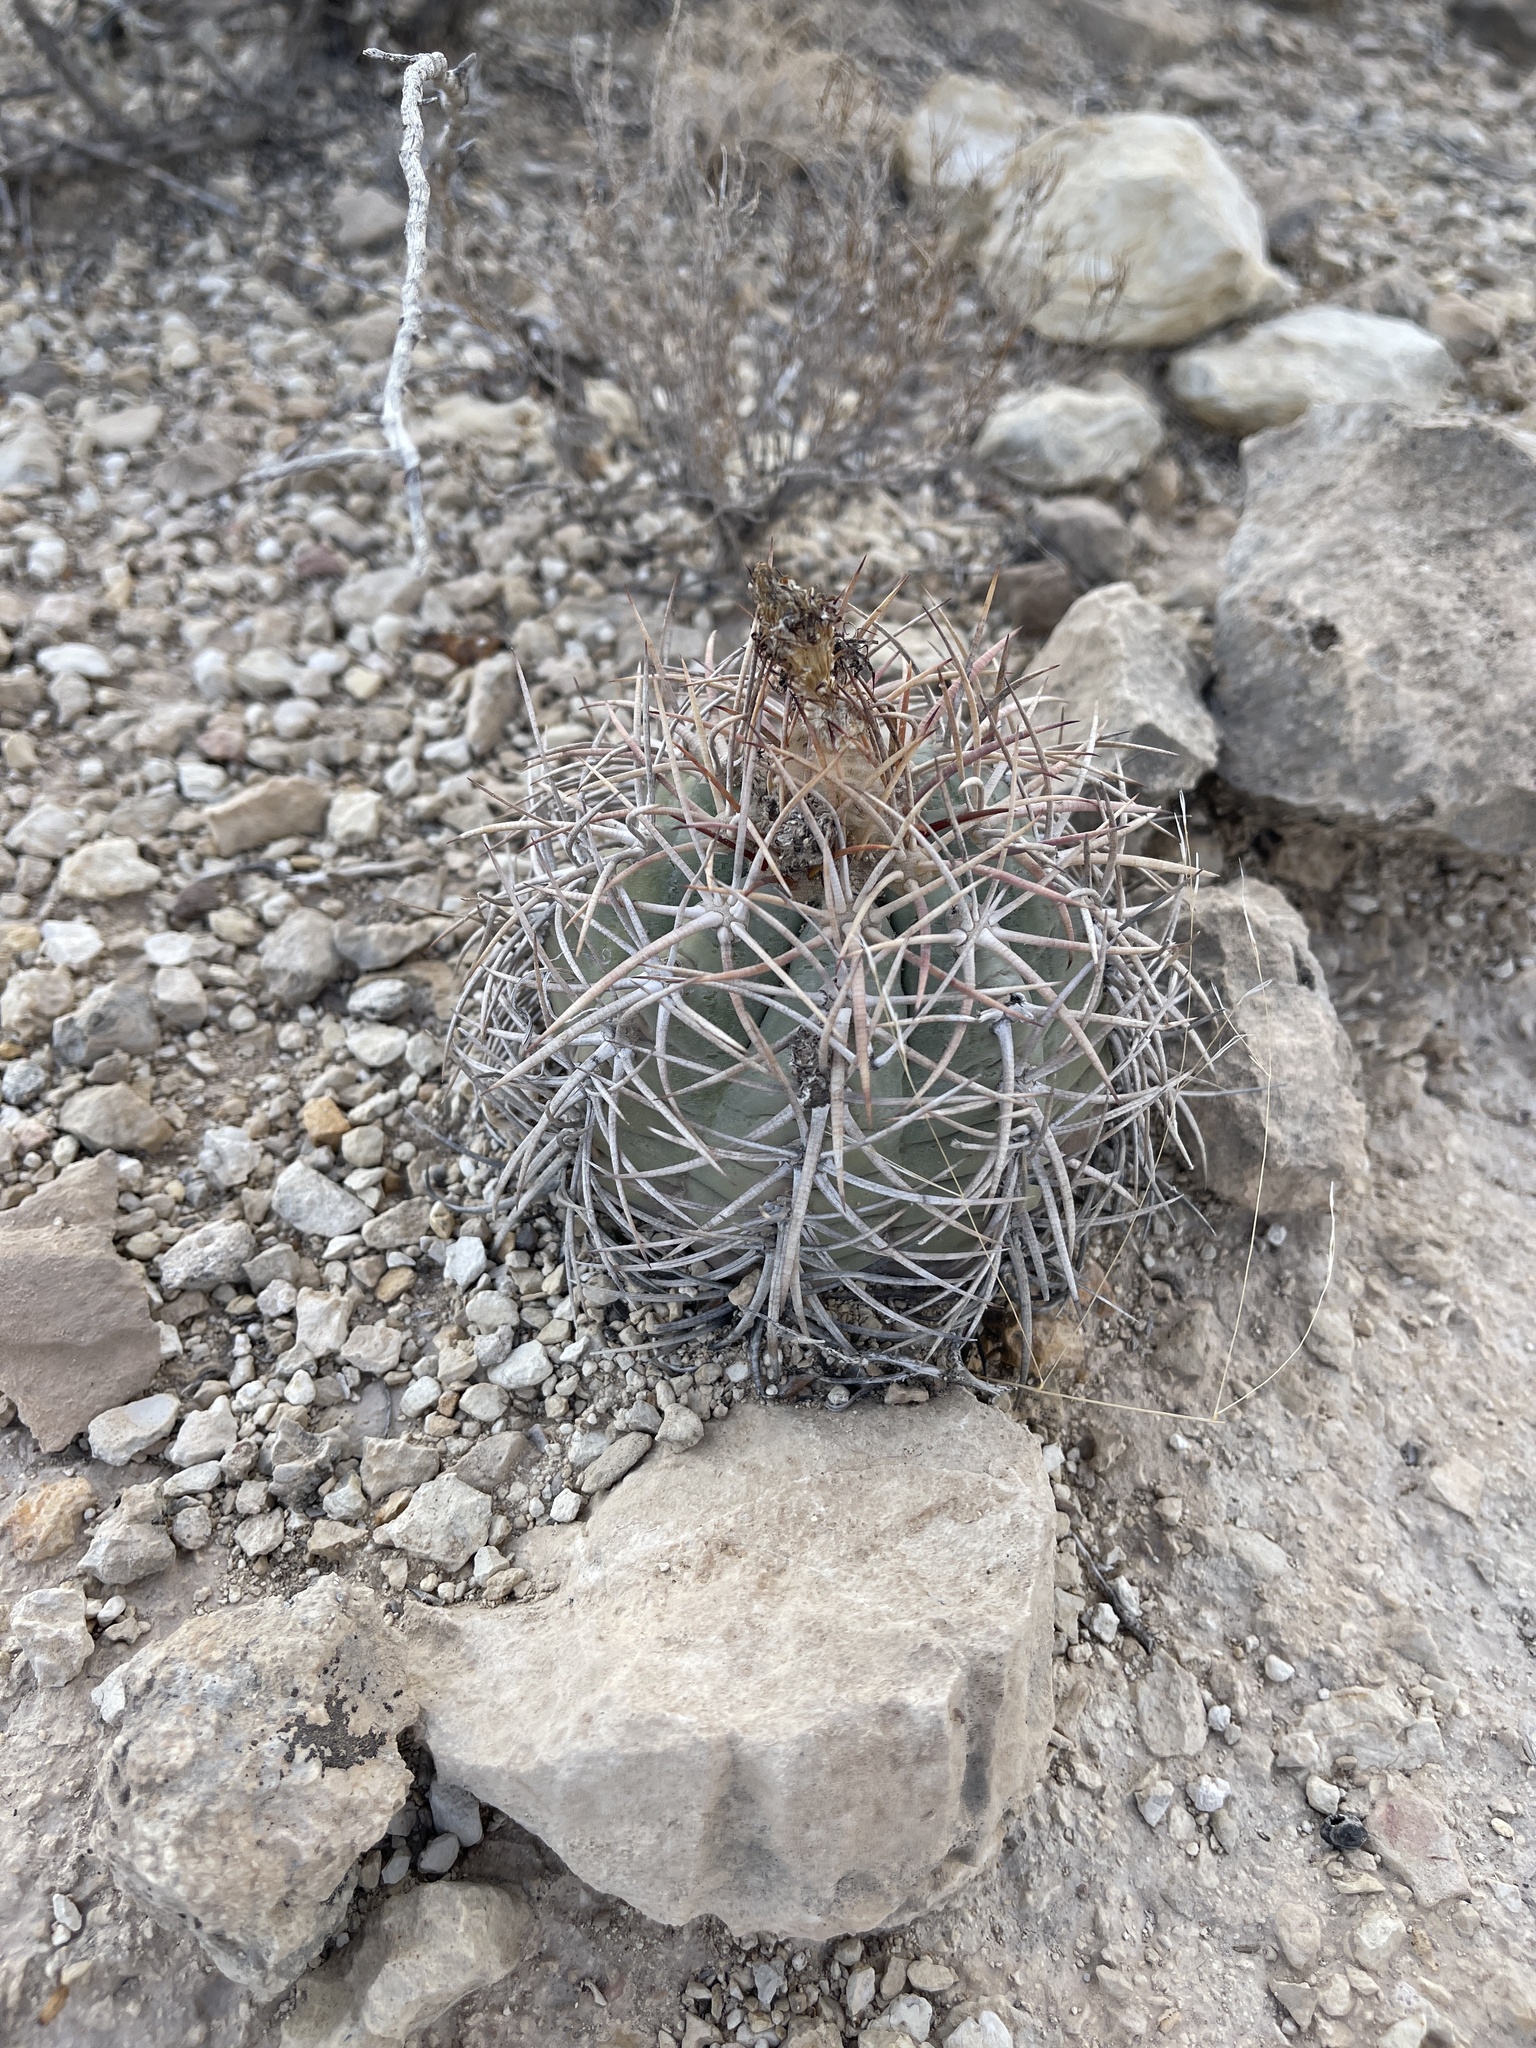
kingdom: Plantae
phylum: Tracheophyta
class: Magnoliopsida
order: Caryophyllales
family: Cactaceae
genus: Echinocactus
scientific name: Echinocactus horizonthalonius
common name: Devilshead
